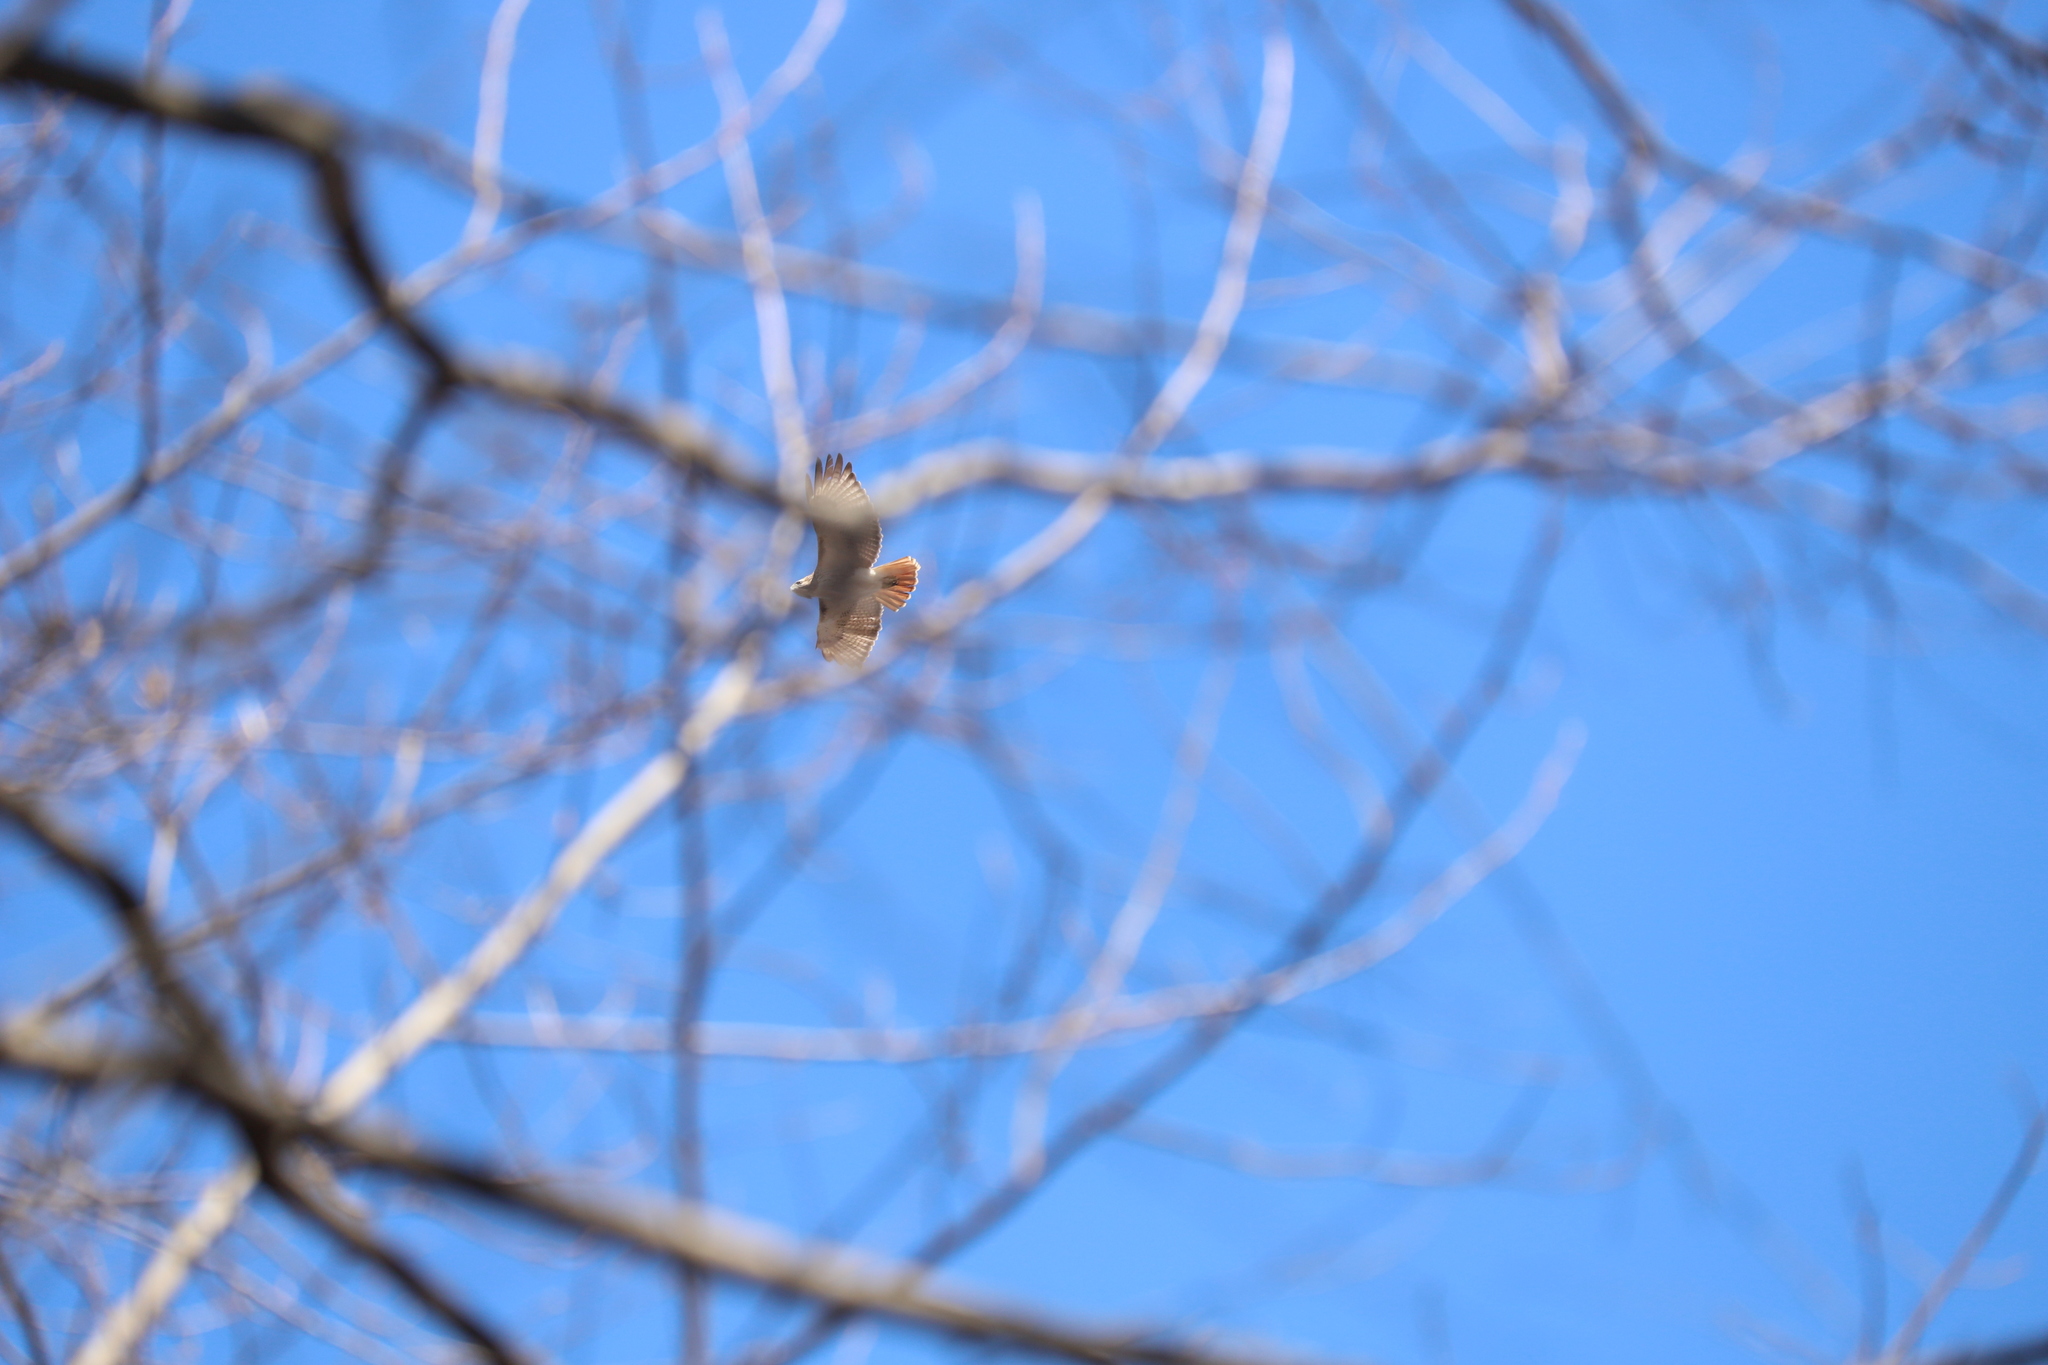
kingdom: Animalia
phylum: Chordata
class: Aves
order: Accipitriformes
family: Accipitridae
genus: Buteo
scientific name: Buteo jamaicensis
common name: Red-tailed hawk
